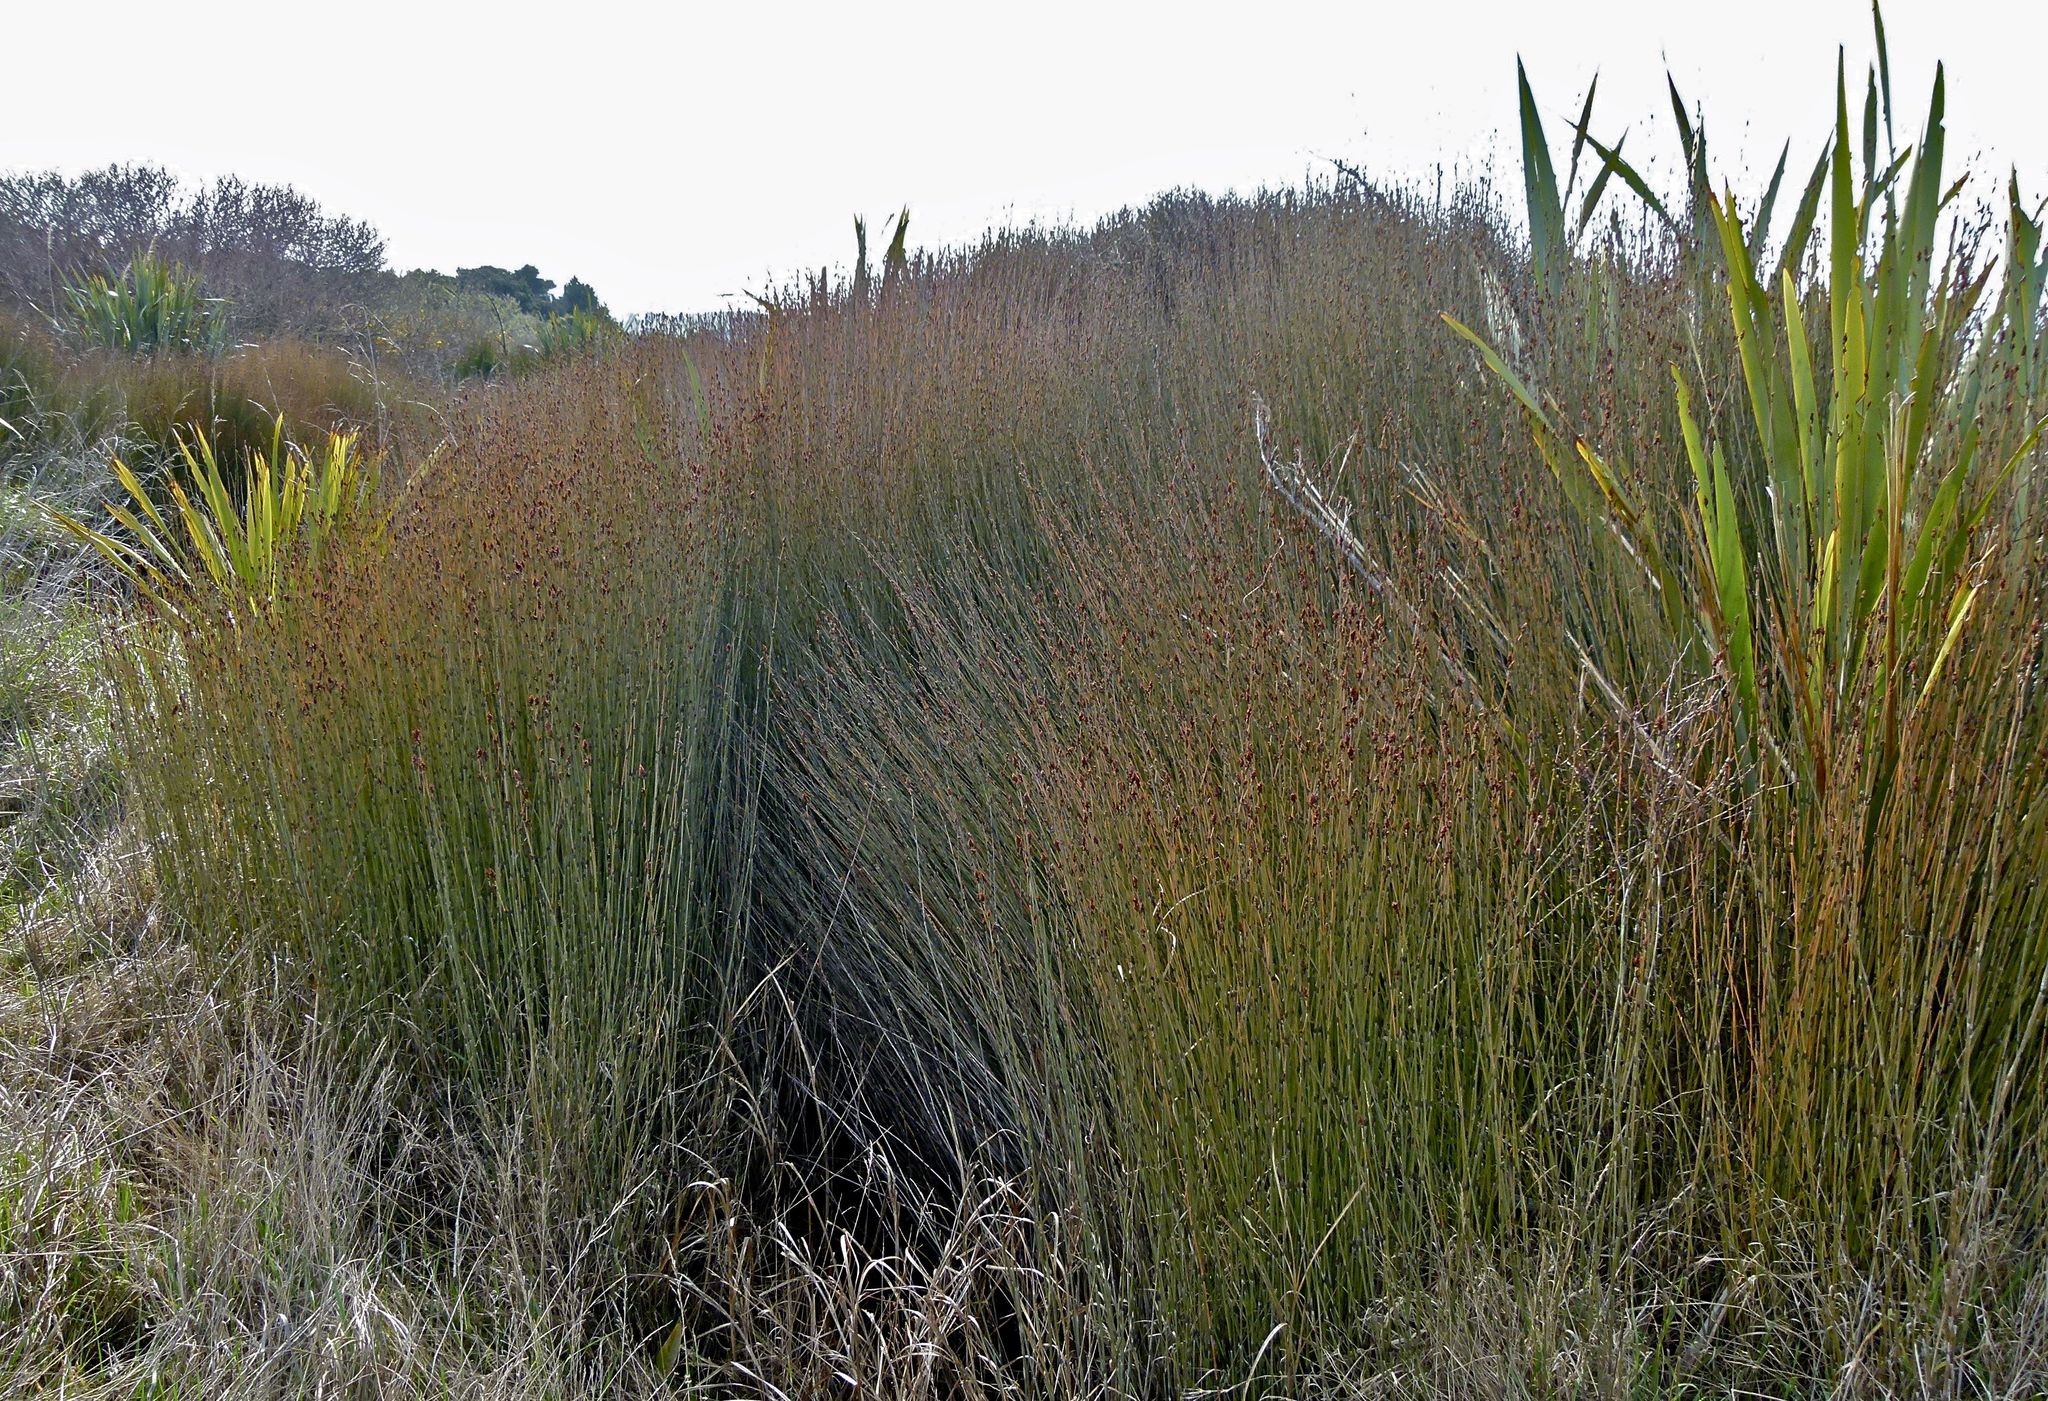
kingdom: Plantae
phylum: Tracheophyta
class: Liliopsida
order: Poales
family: Restionaceae
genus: Apodasmia
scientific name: Apodasmia similis
